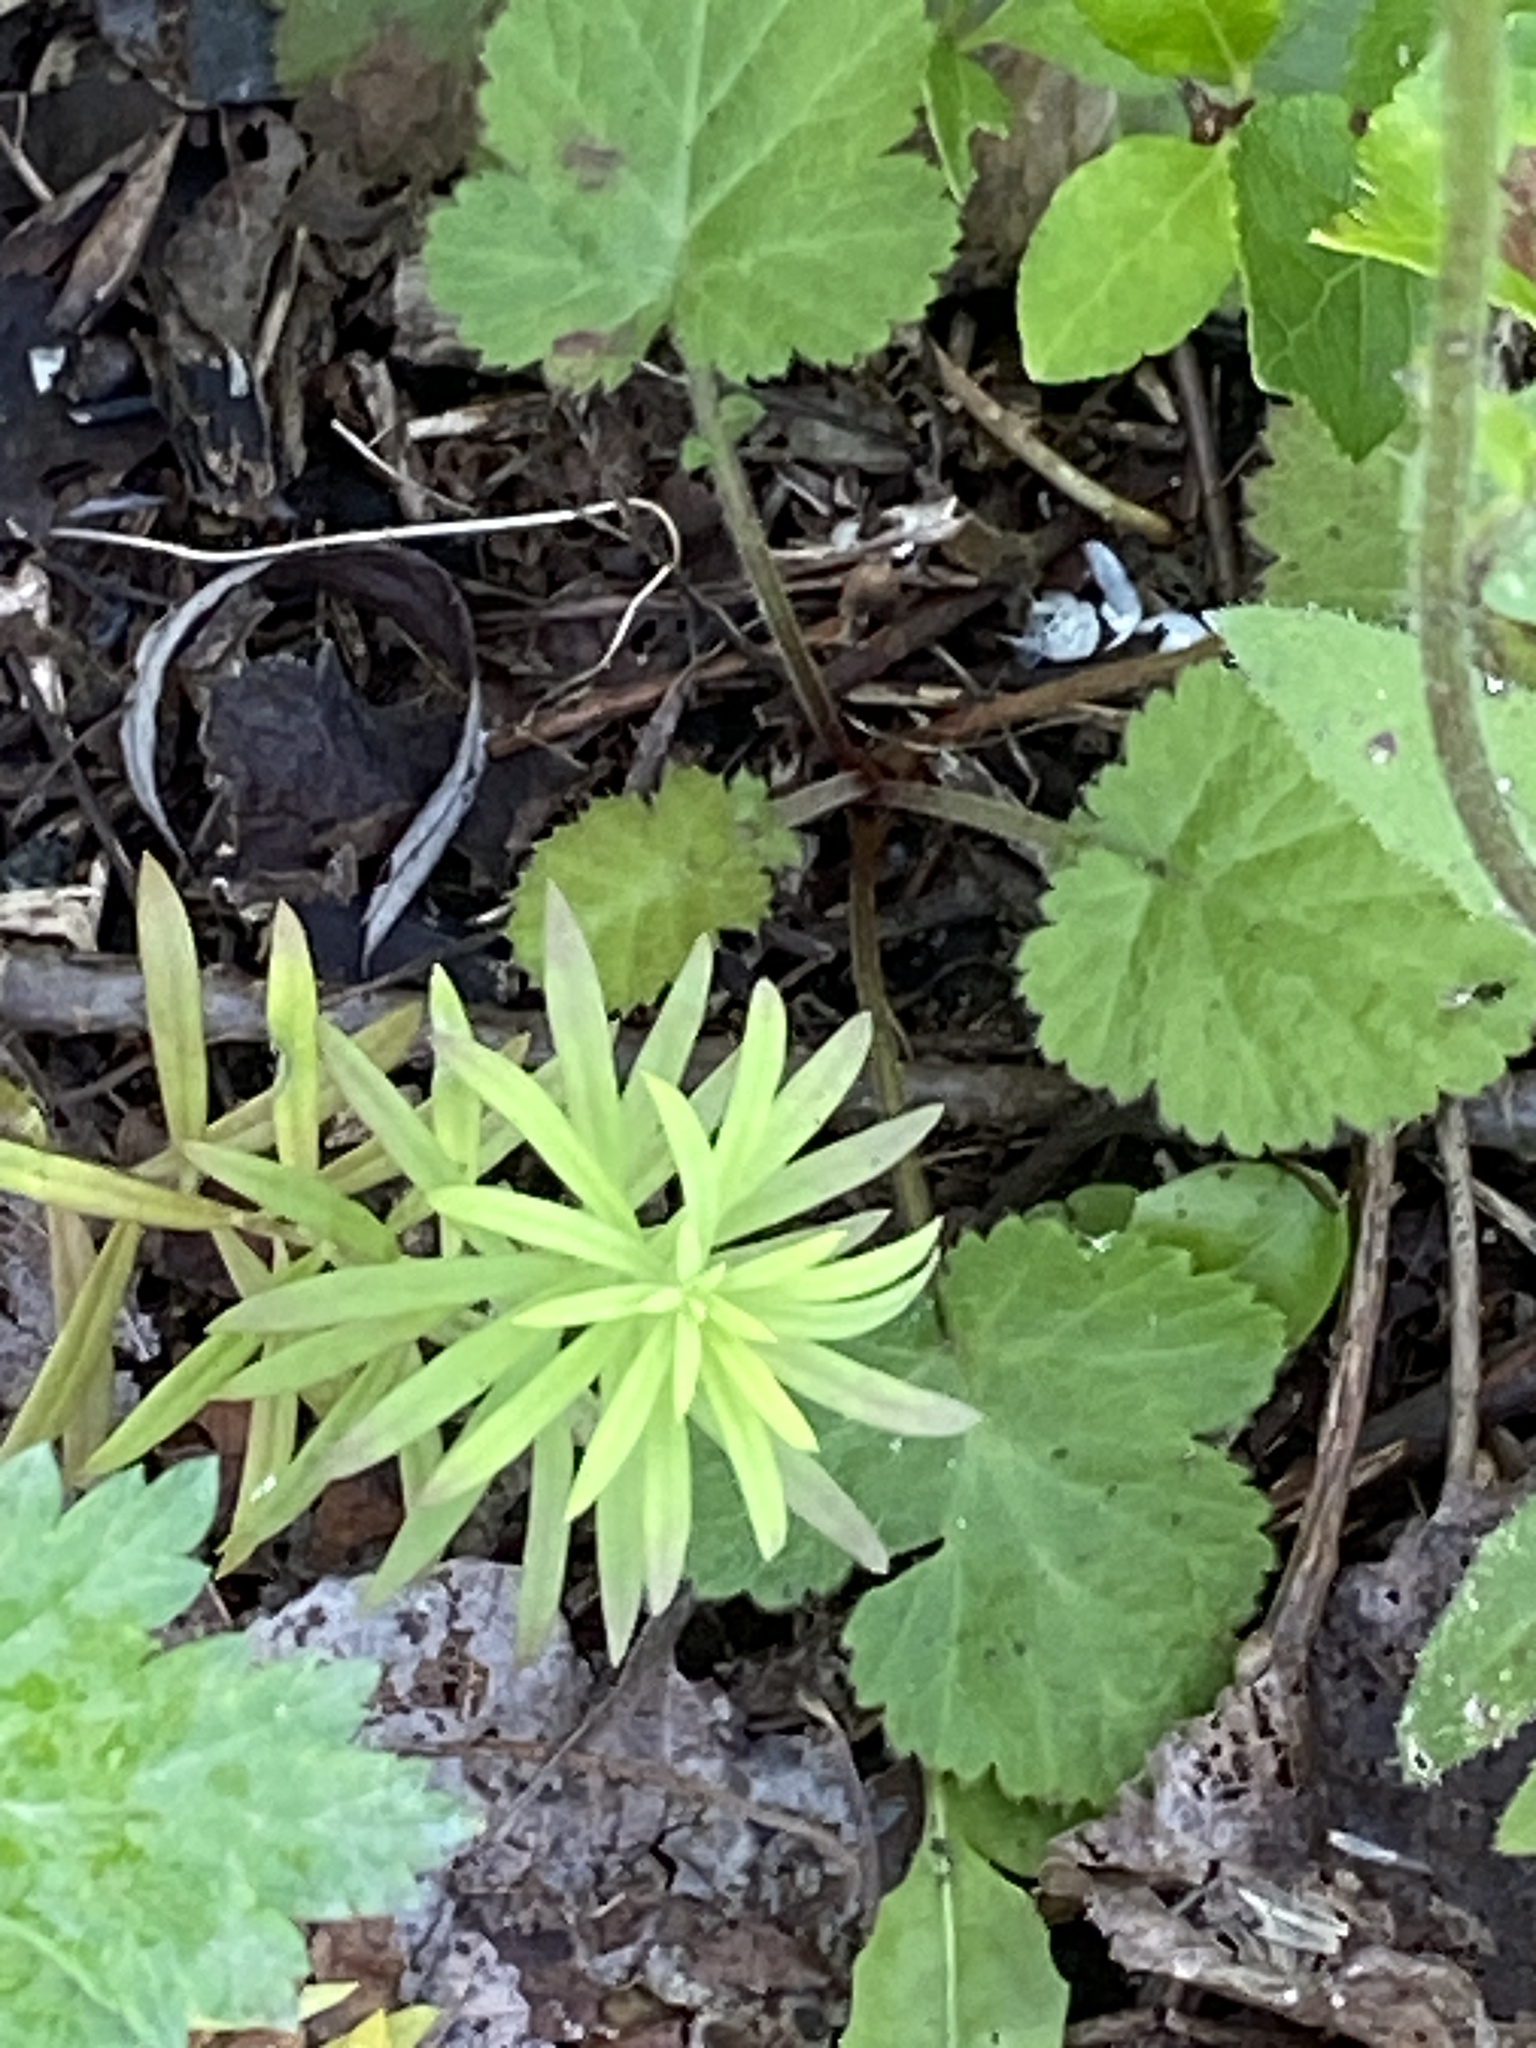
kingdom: Plantae
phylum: Tracheophyta
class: Magnoliopsida
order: Lamiales
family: Plantaginaceae
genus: Linaria
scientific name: Linaria vulgaris
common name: Butter and eggs
